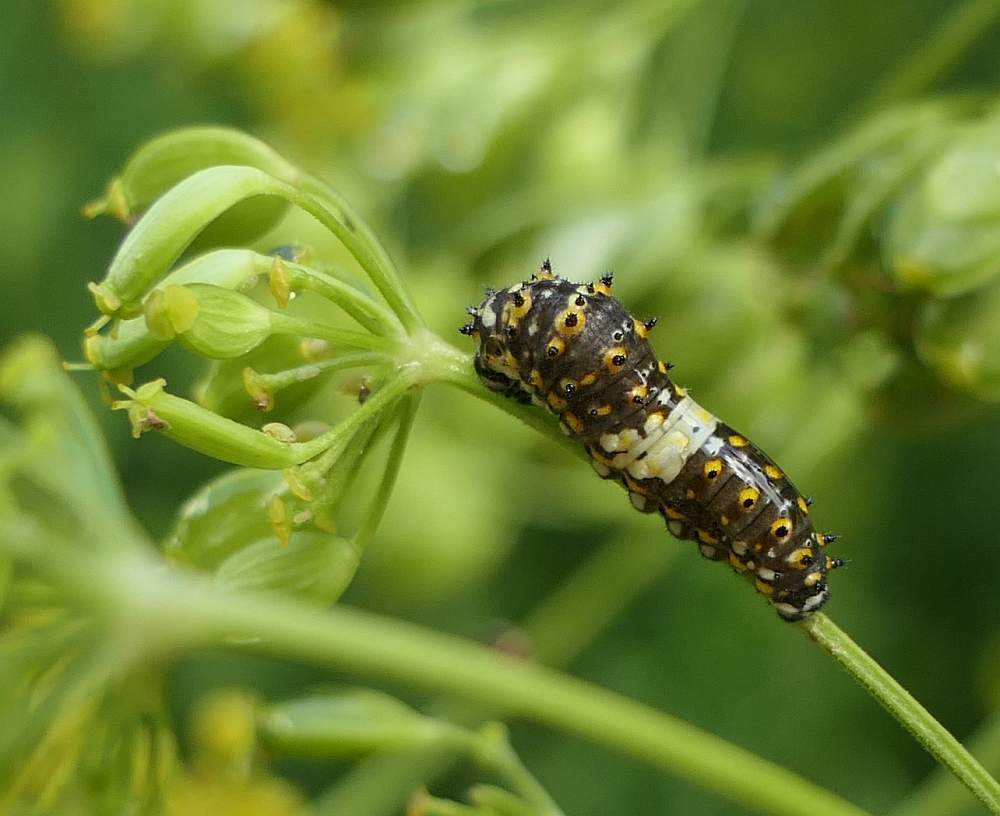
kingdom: Animalia
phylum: Arthropoda
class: Insecta
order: Lepidoptera
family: Papilionidae
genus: Papilio
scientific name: Papilio polyxenes
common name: Black swallowtail
